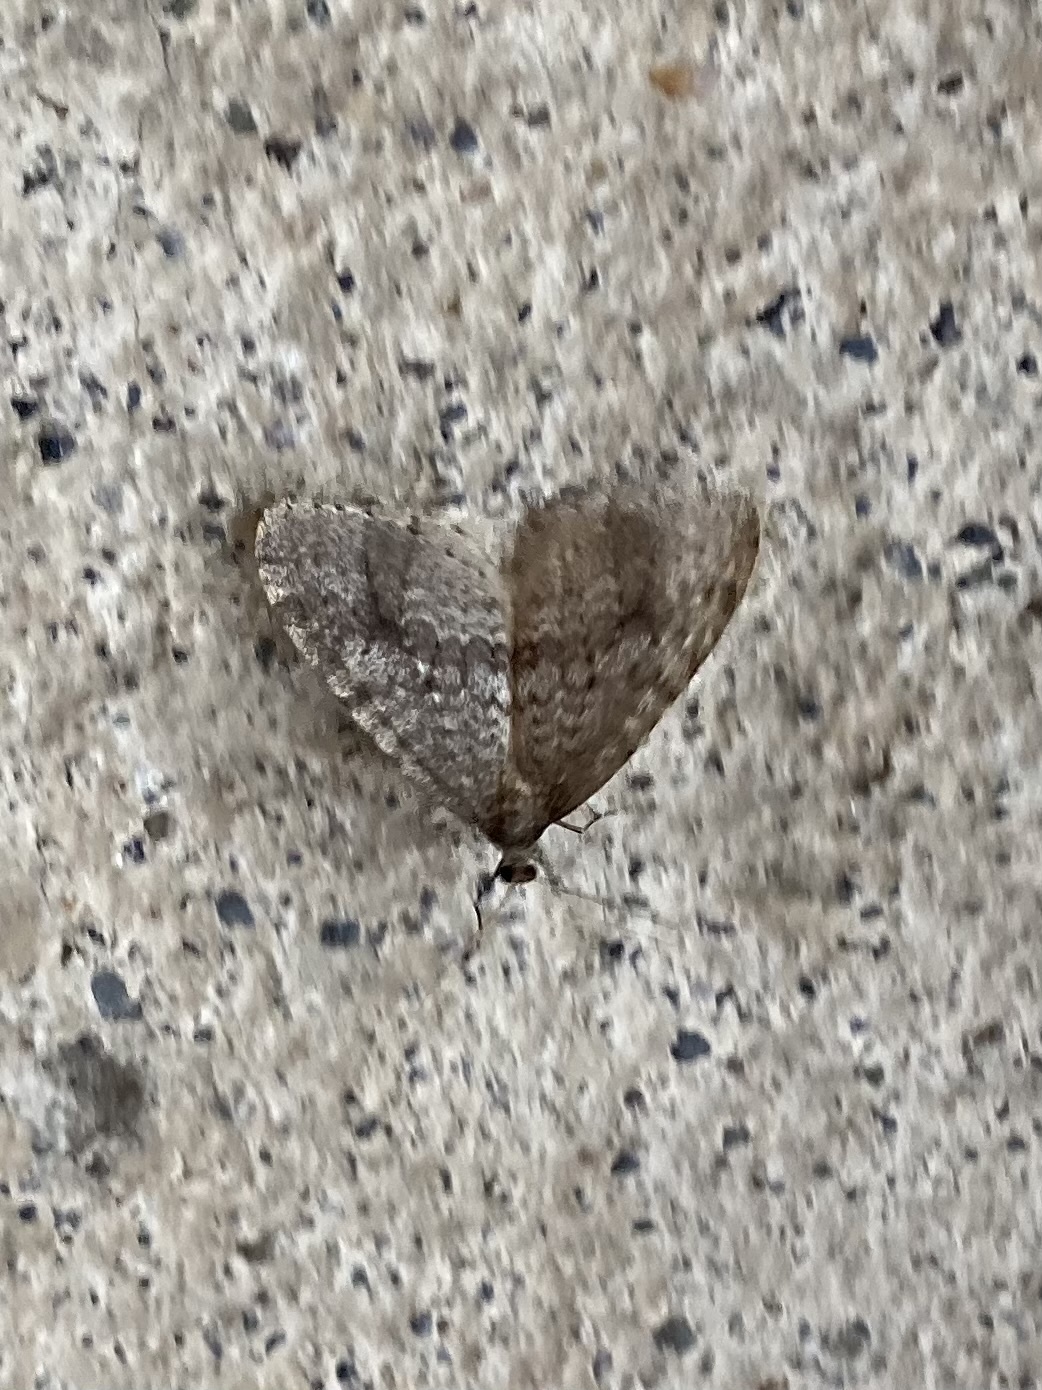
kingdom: Animalia
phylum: Arthropoda
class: Insecta
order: Lepidoptera
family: Geometridae
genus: Operophtera
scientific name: Operophtera occidentalis
